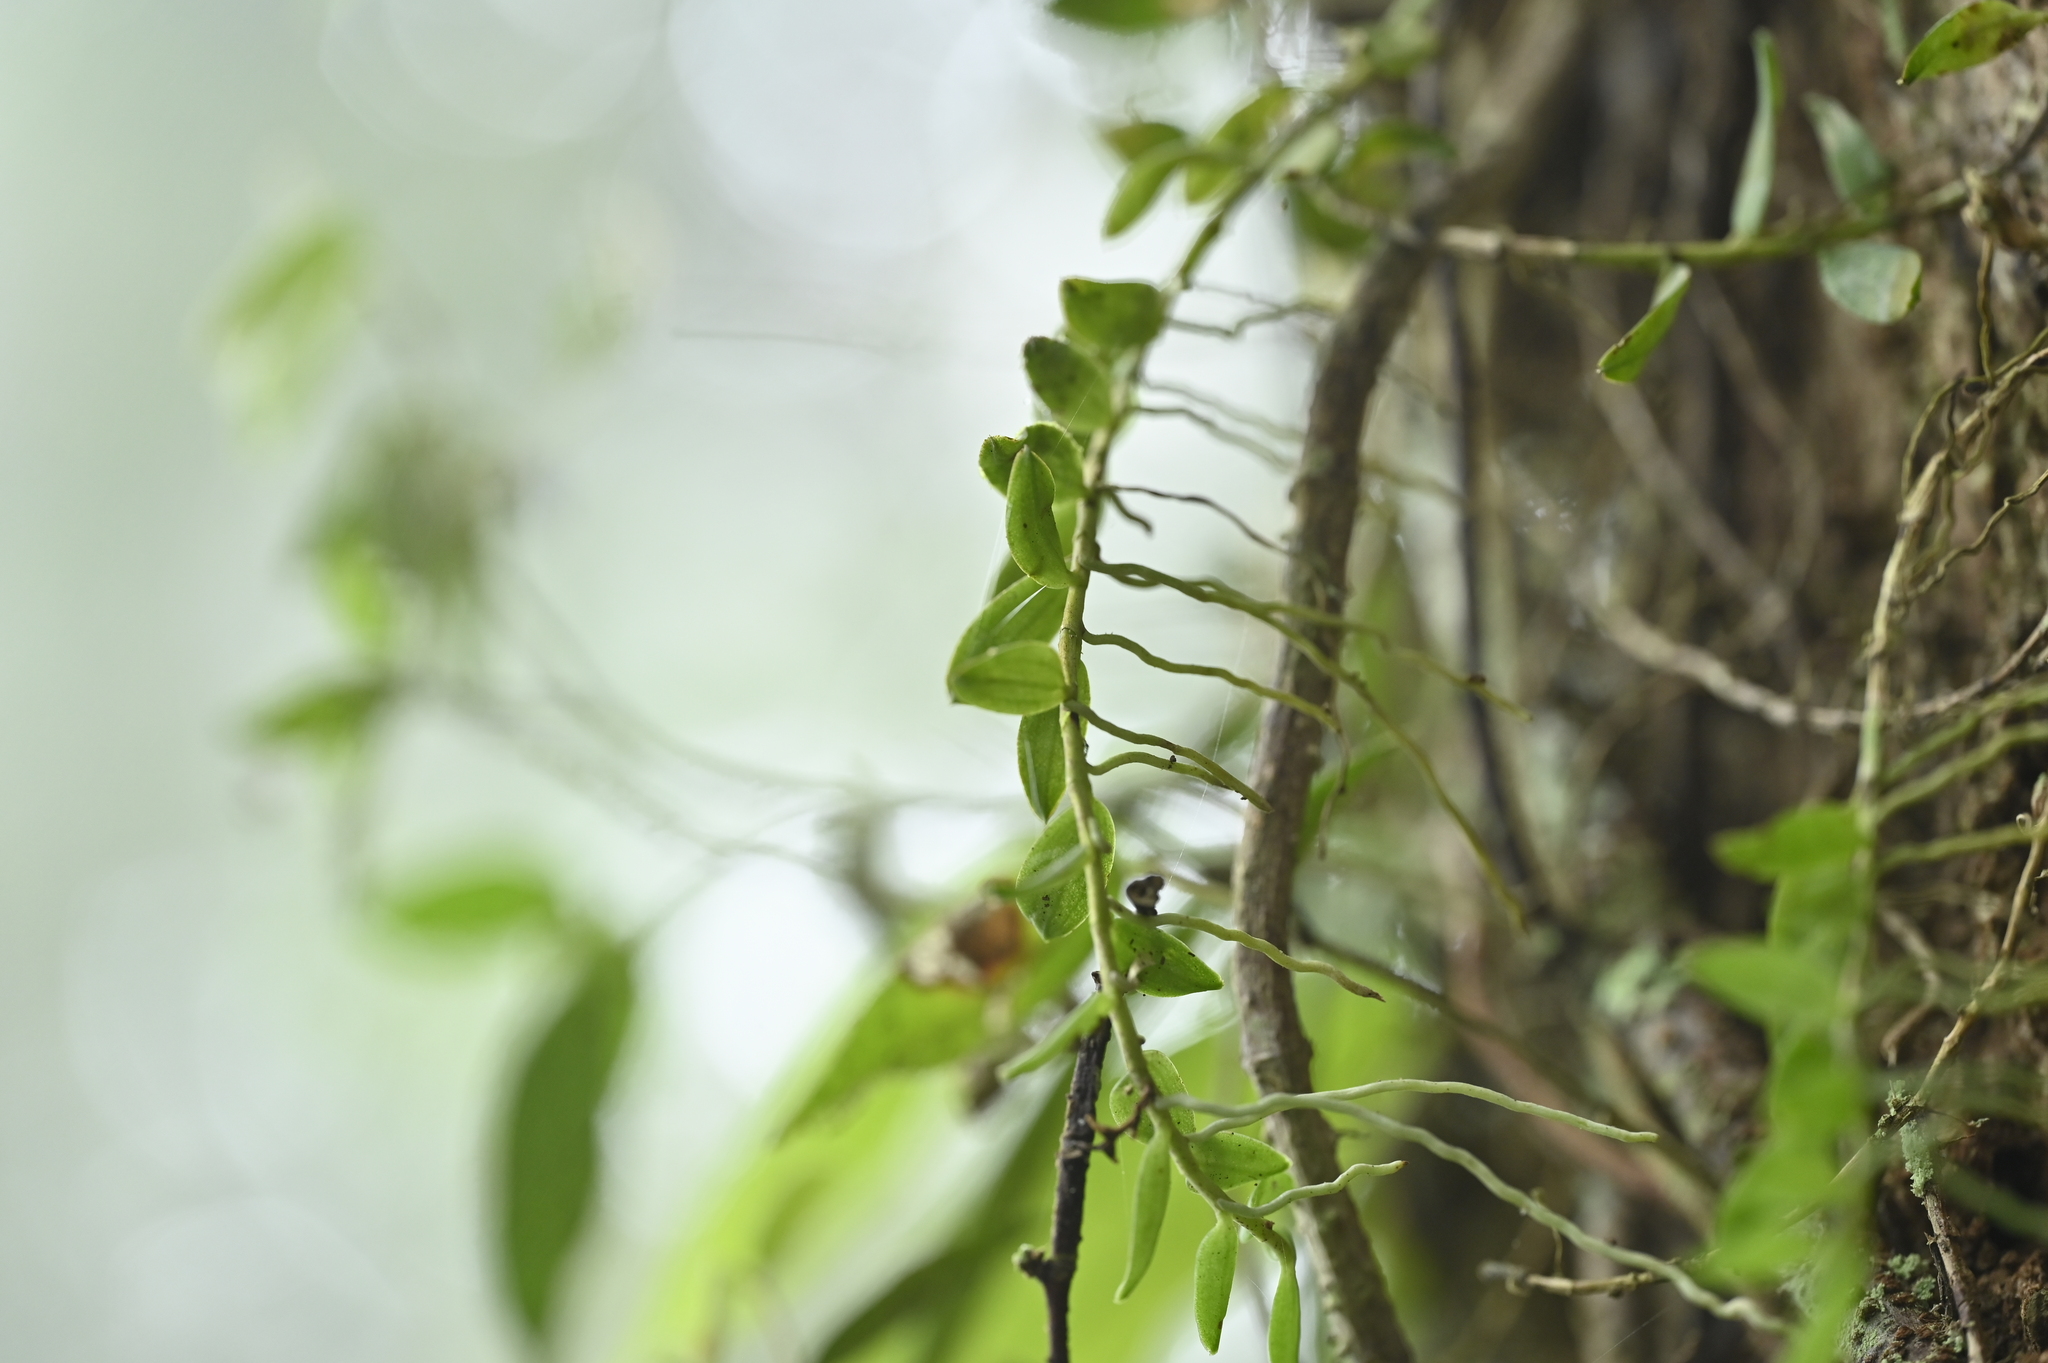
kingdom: Plantae
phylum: Tracheophyta
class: Liliopsida
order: Asparagales
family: Orchidaceae
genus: Gastrochilus
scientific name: Gastrochilus formosanus
